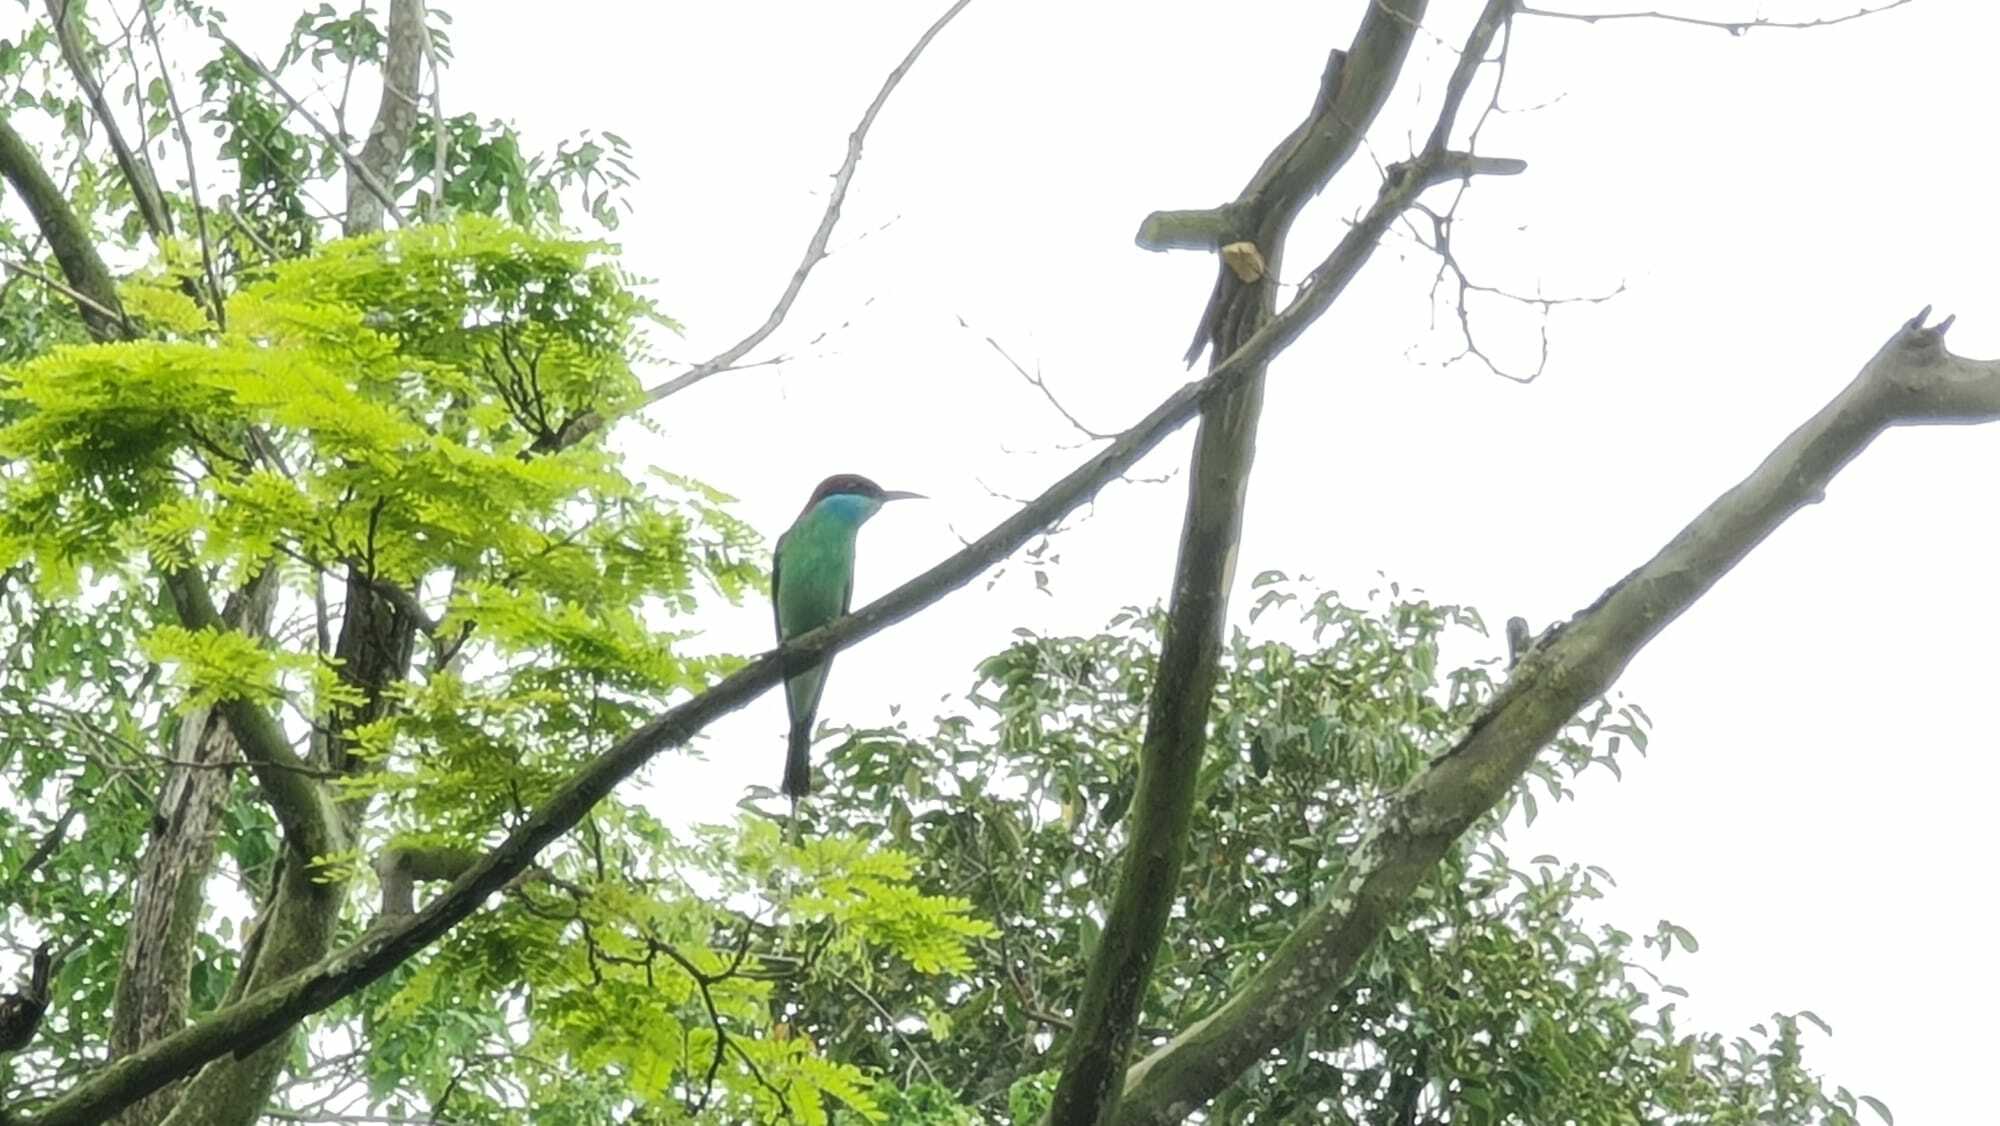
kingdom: Animalia
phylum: Chordata
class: Aves
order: Coraciiformes
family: Meropidae
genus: Merops
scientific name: Merops viridis
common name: Blue-throated bee-eater
